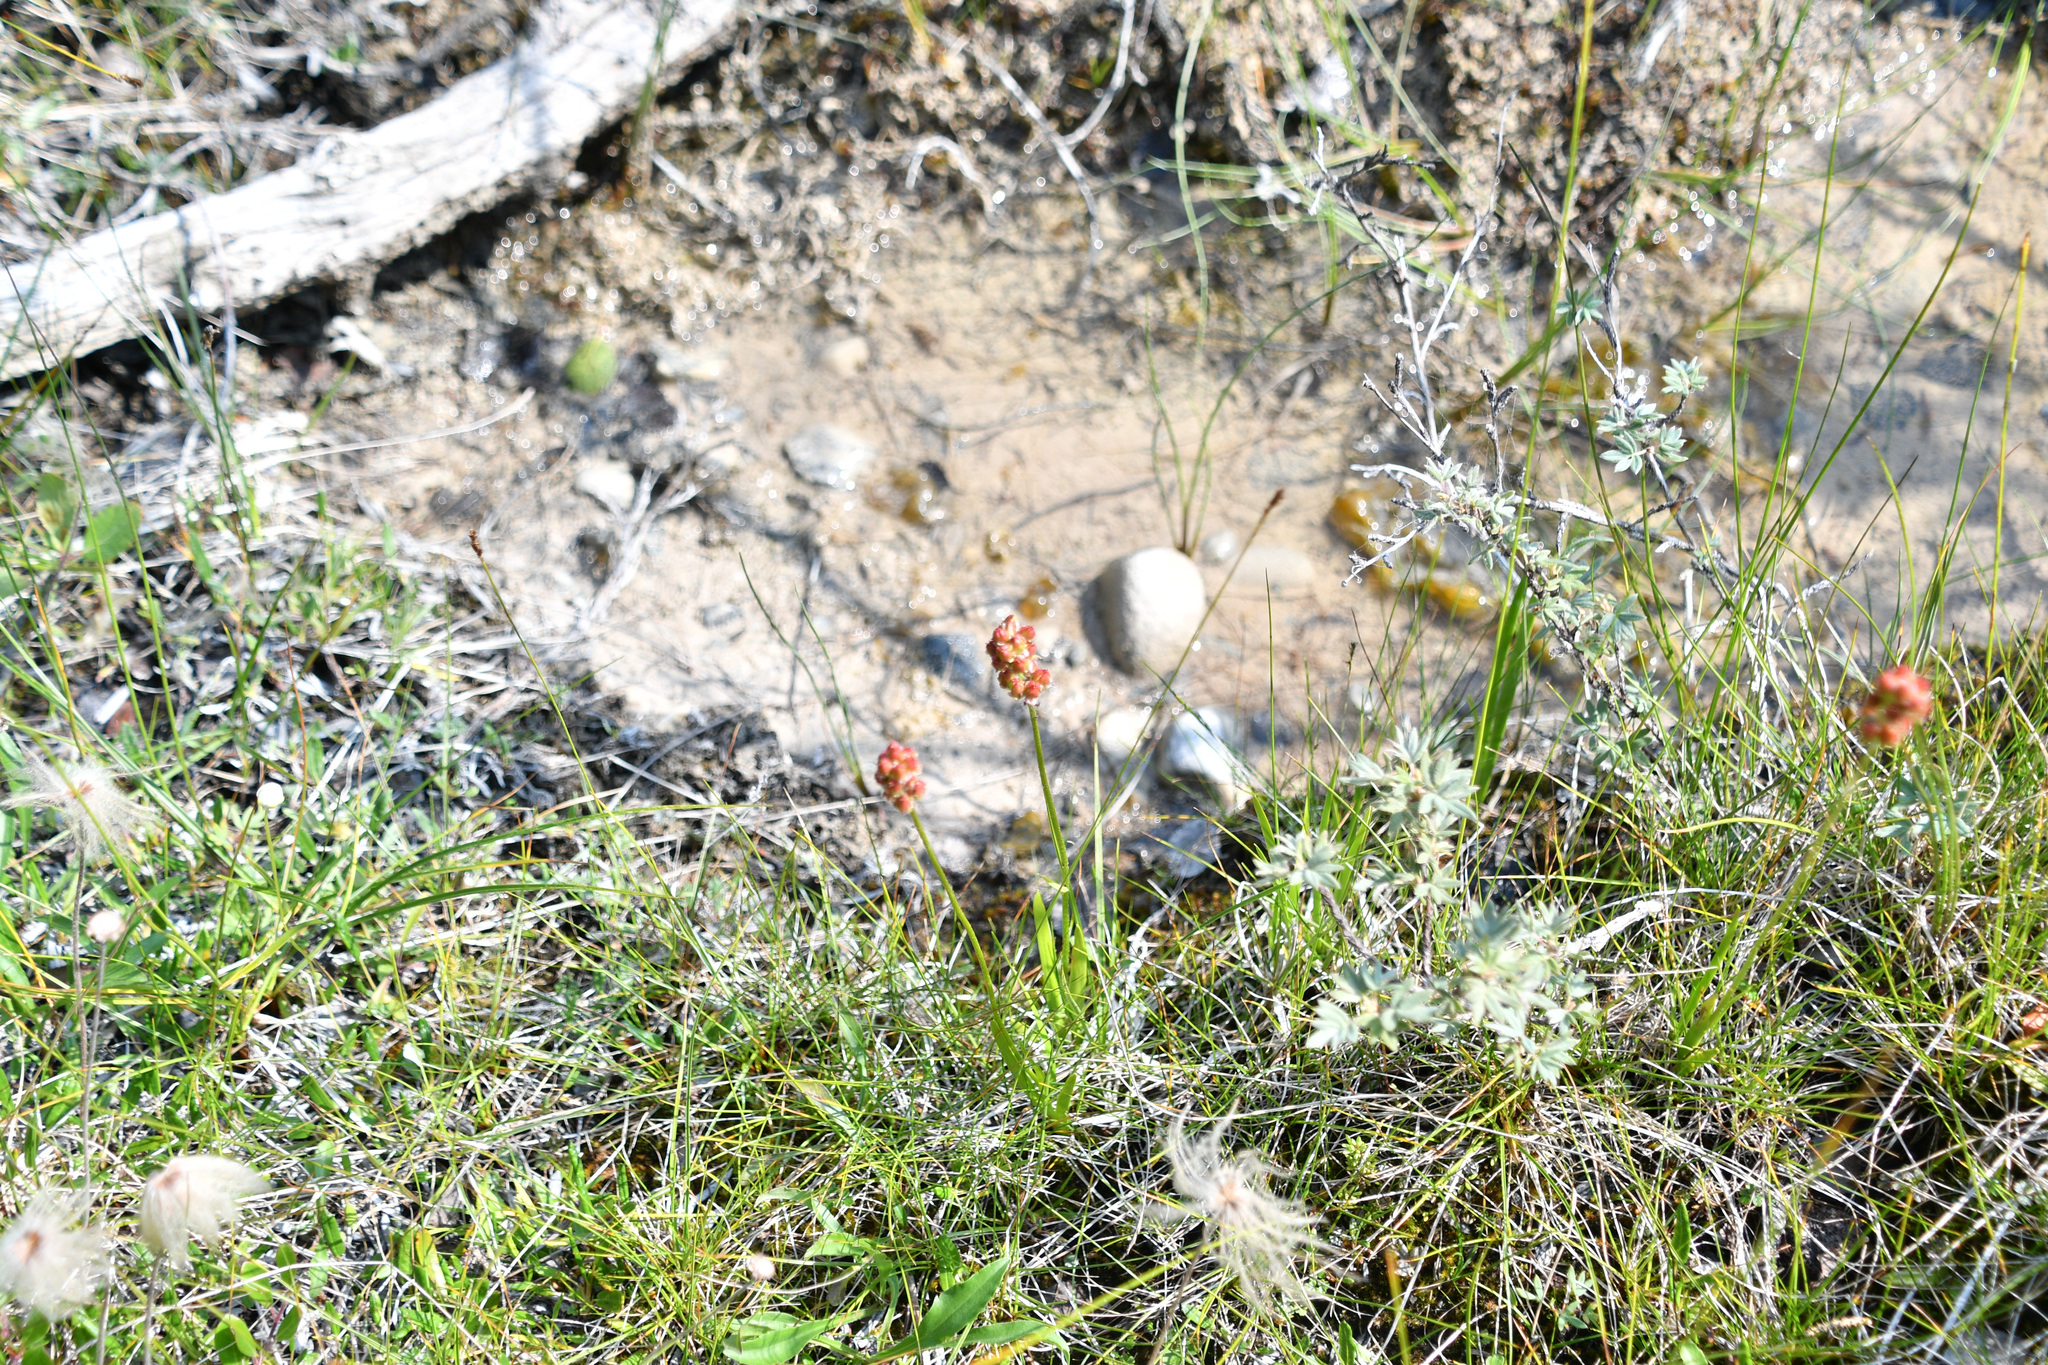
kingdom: Plantae
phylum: Tracheophyta
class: Liliopsida
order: Alismatales
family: Tofieldiaceae
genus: Triantha
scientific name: Triantha glutinosa
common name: Glutinous tofieldia
